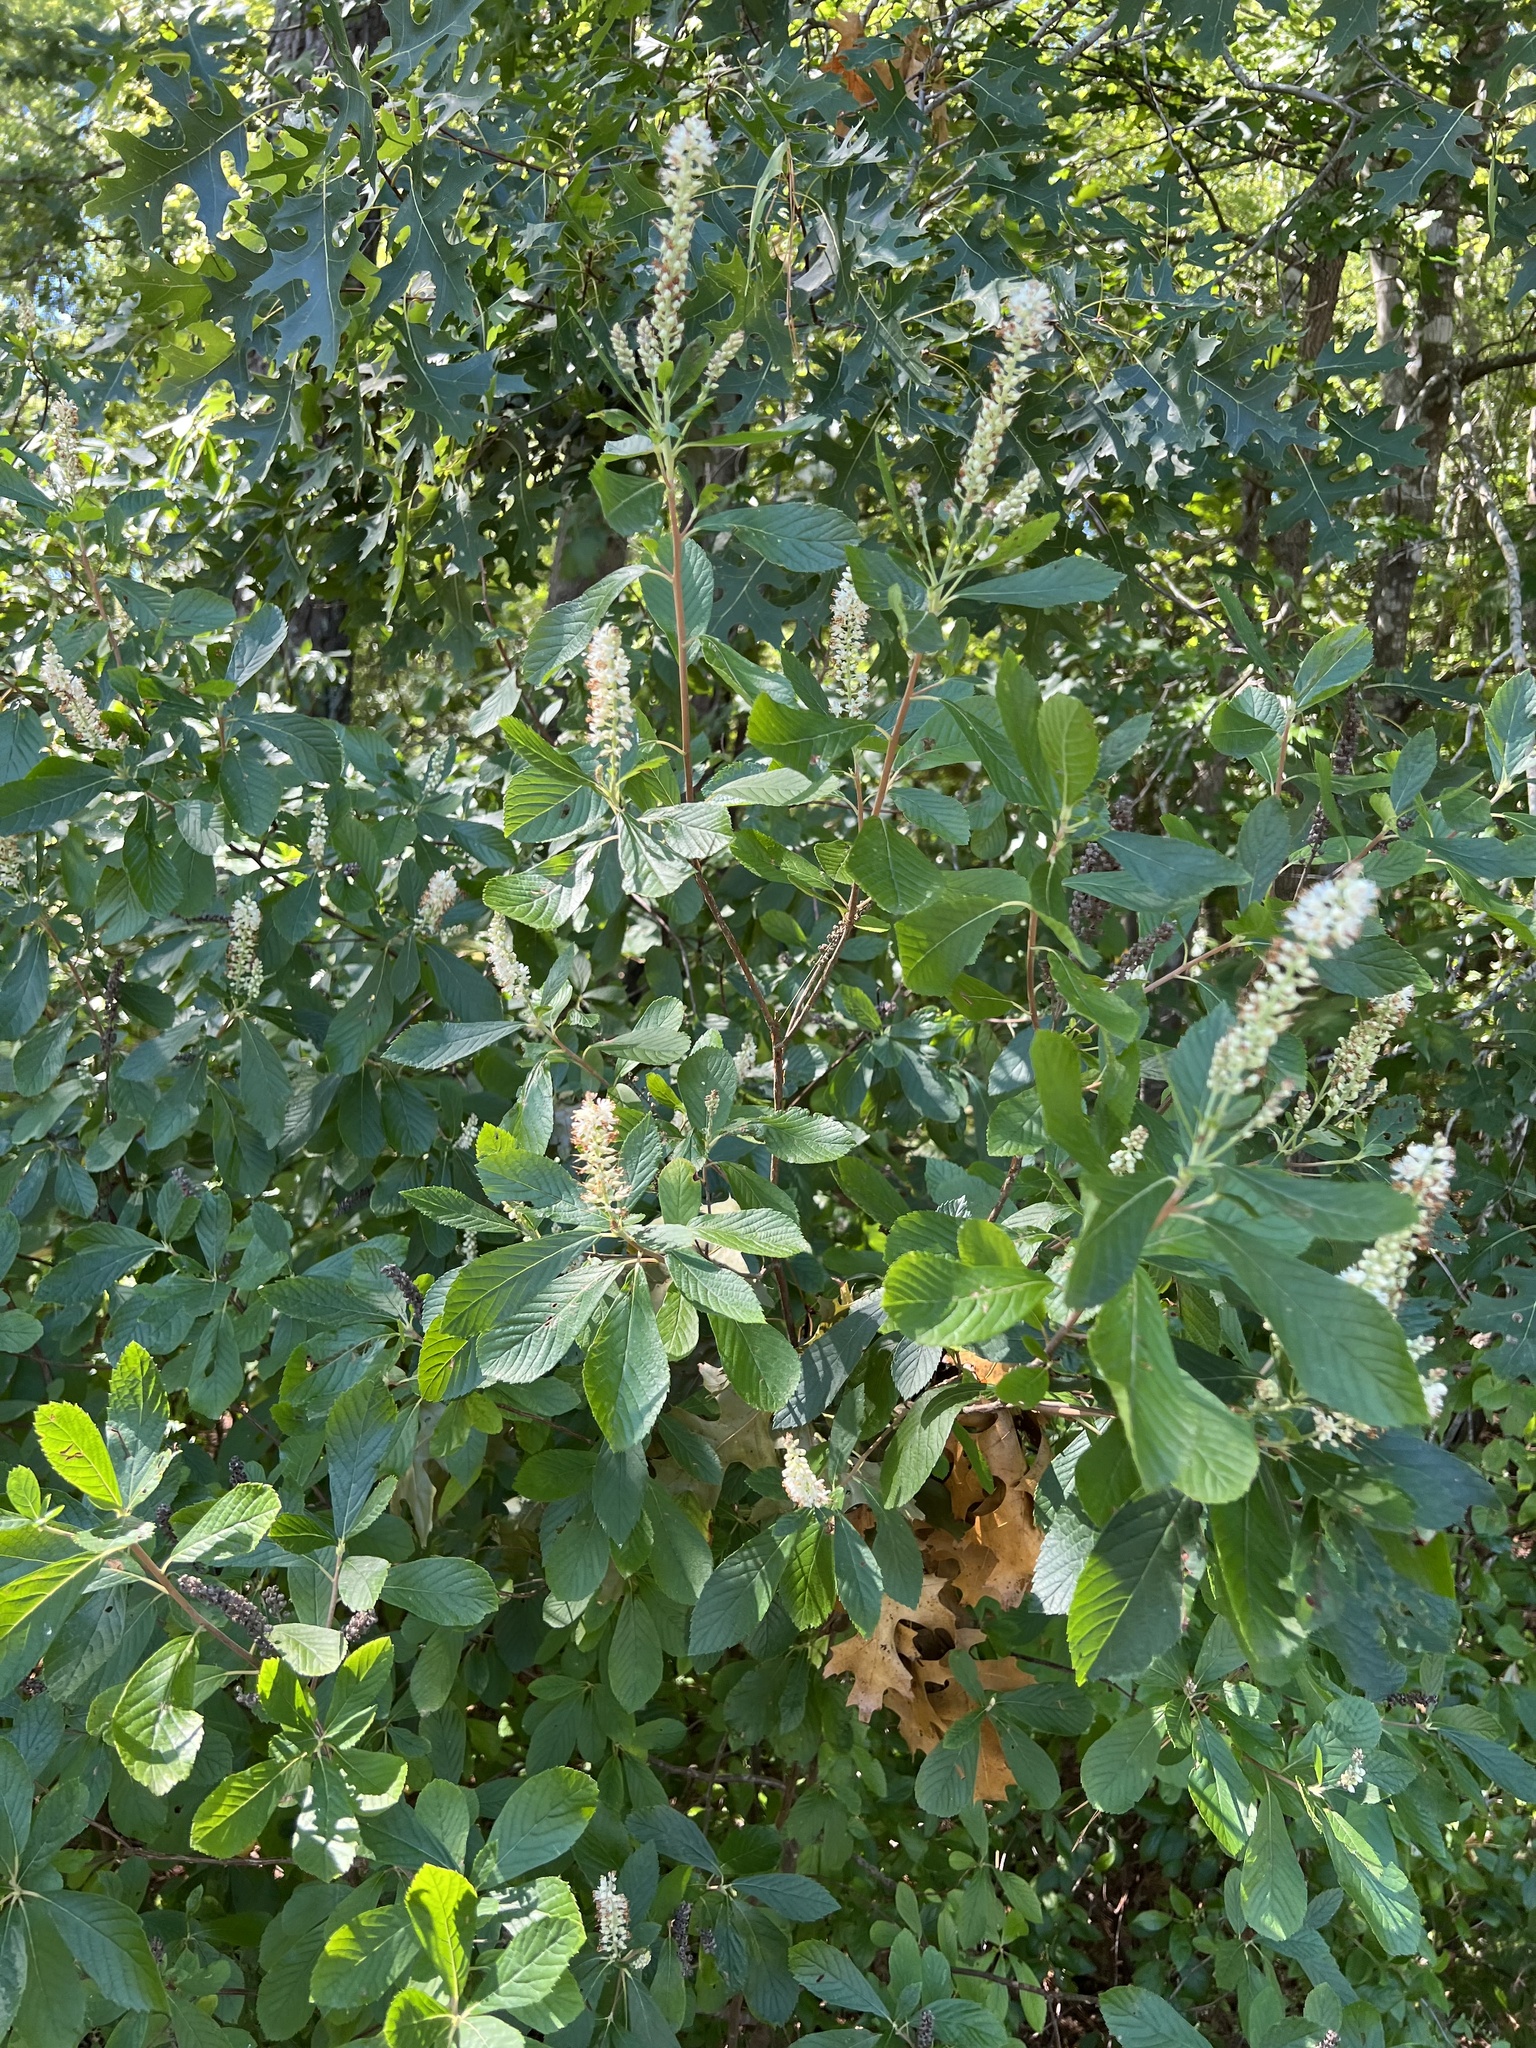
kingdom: Plantae
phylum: Tracheophyta
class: Magnoliopsida
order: Ericales
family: Clethraceae
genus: Clethra
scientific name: Clethra alnifolia
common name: Sweet pepperbush
